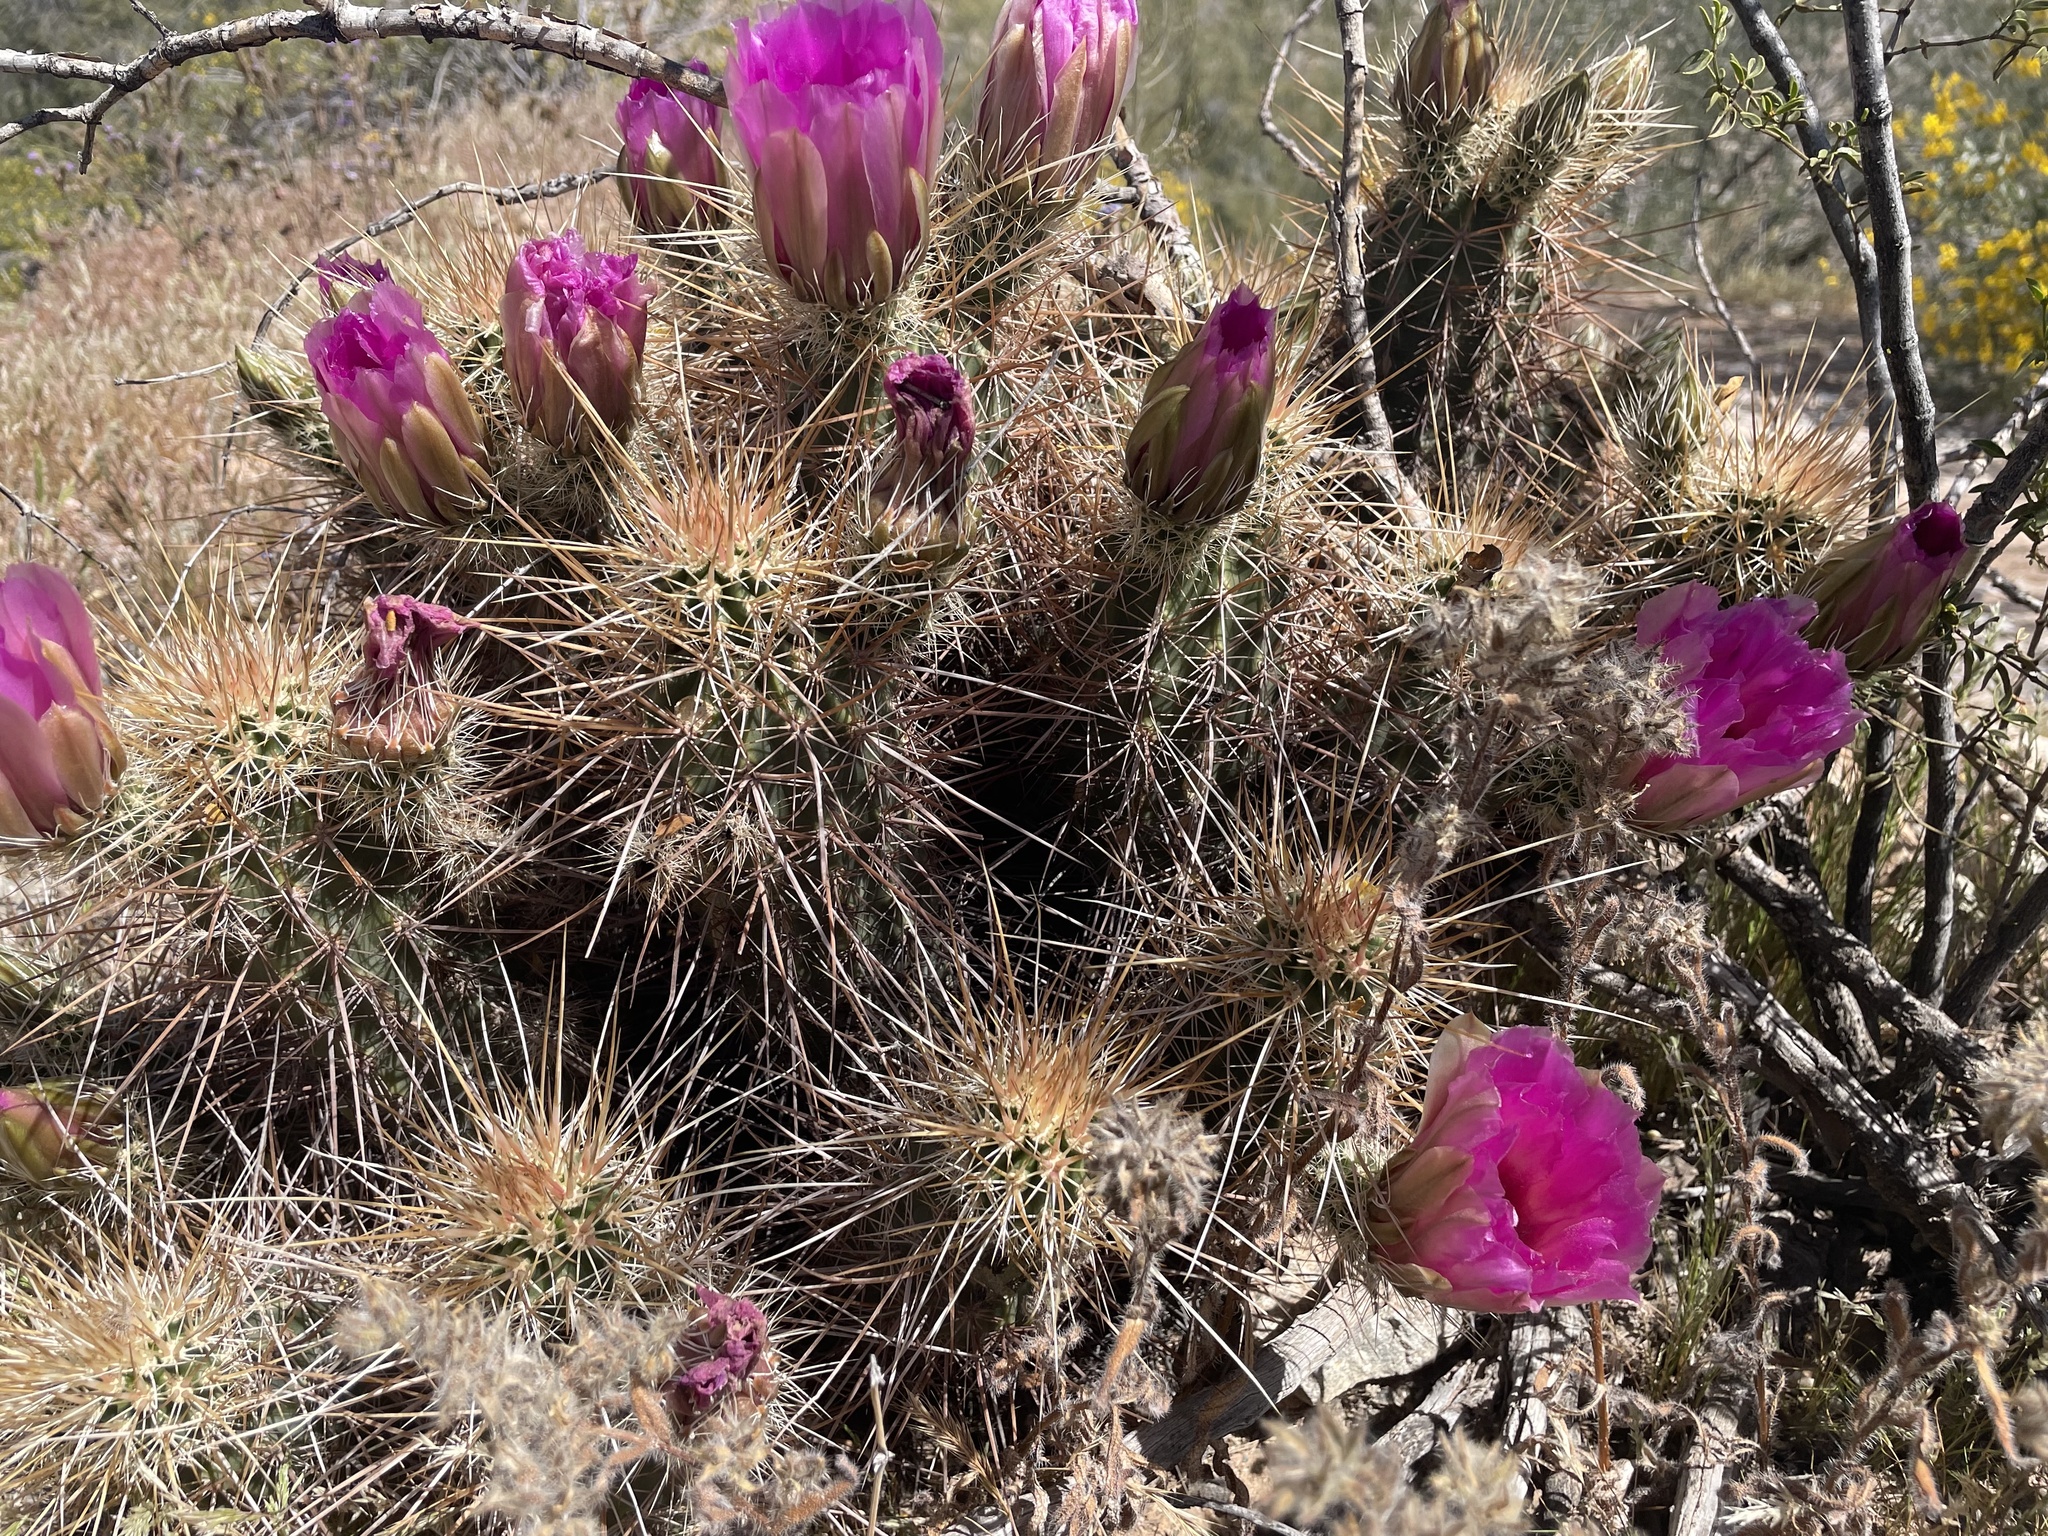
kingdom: Plantae
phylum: Tracheophyta
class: Magnoliopsida
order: Caryophyllales
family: Cactaceae
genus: Echinocereus
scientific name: Echinocereus engelmannii
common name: Engelmann's hedgehog cactus
